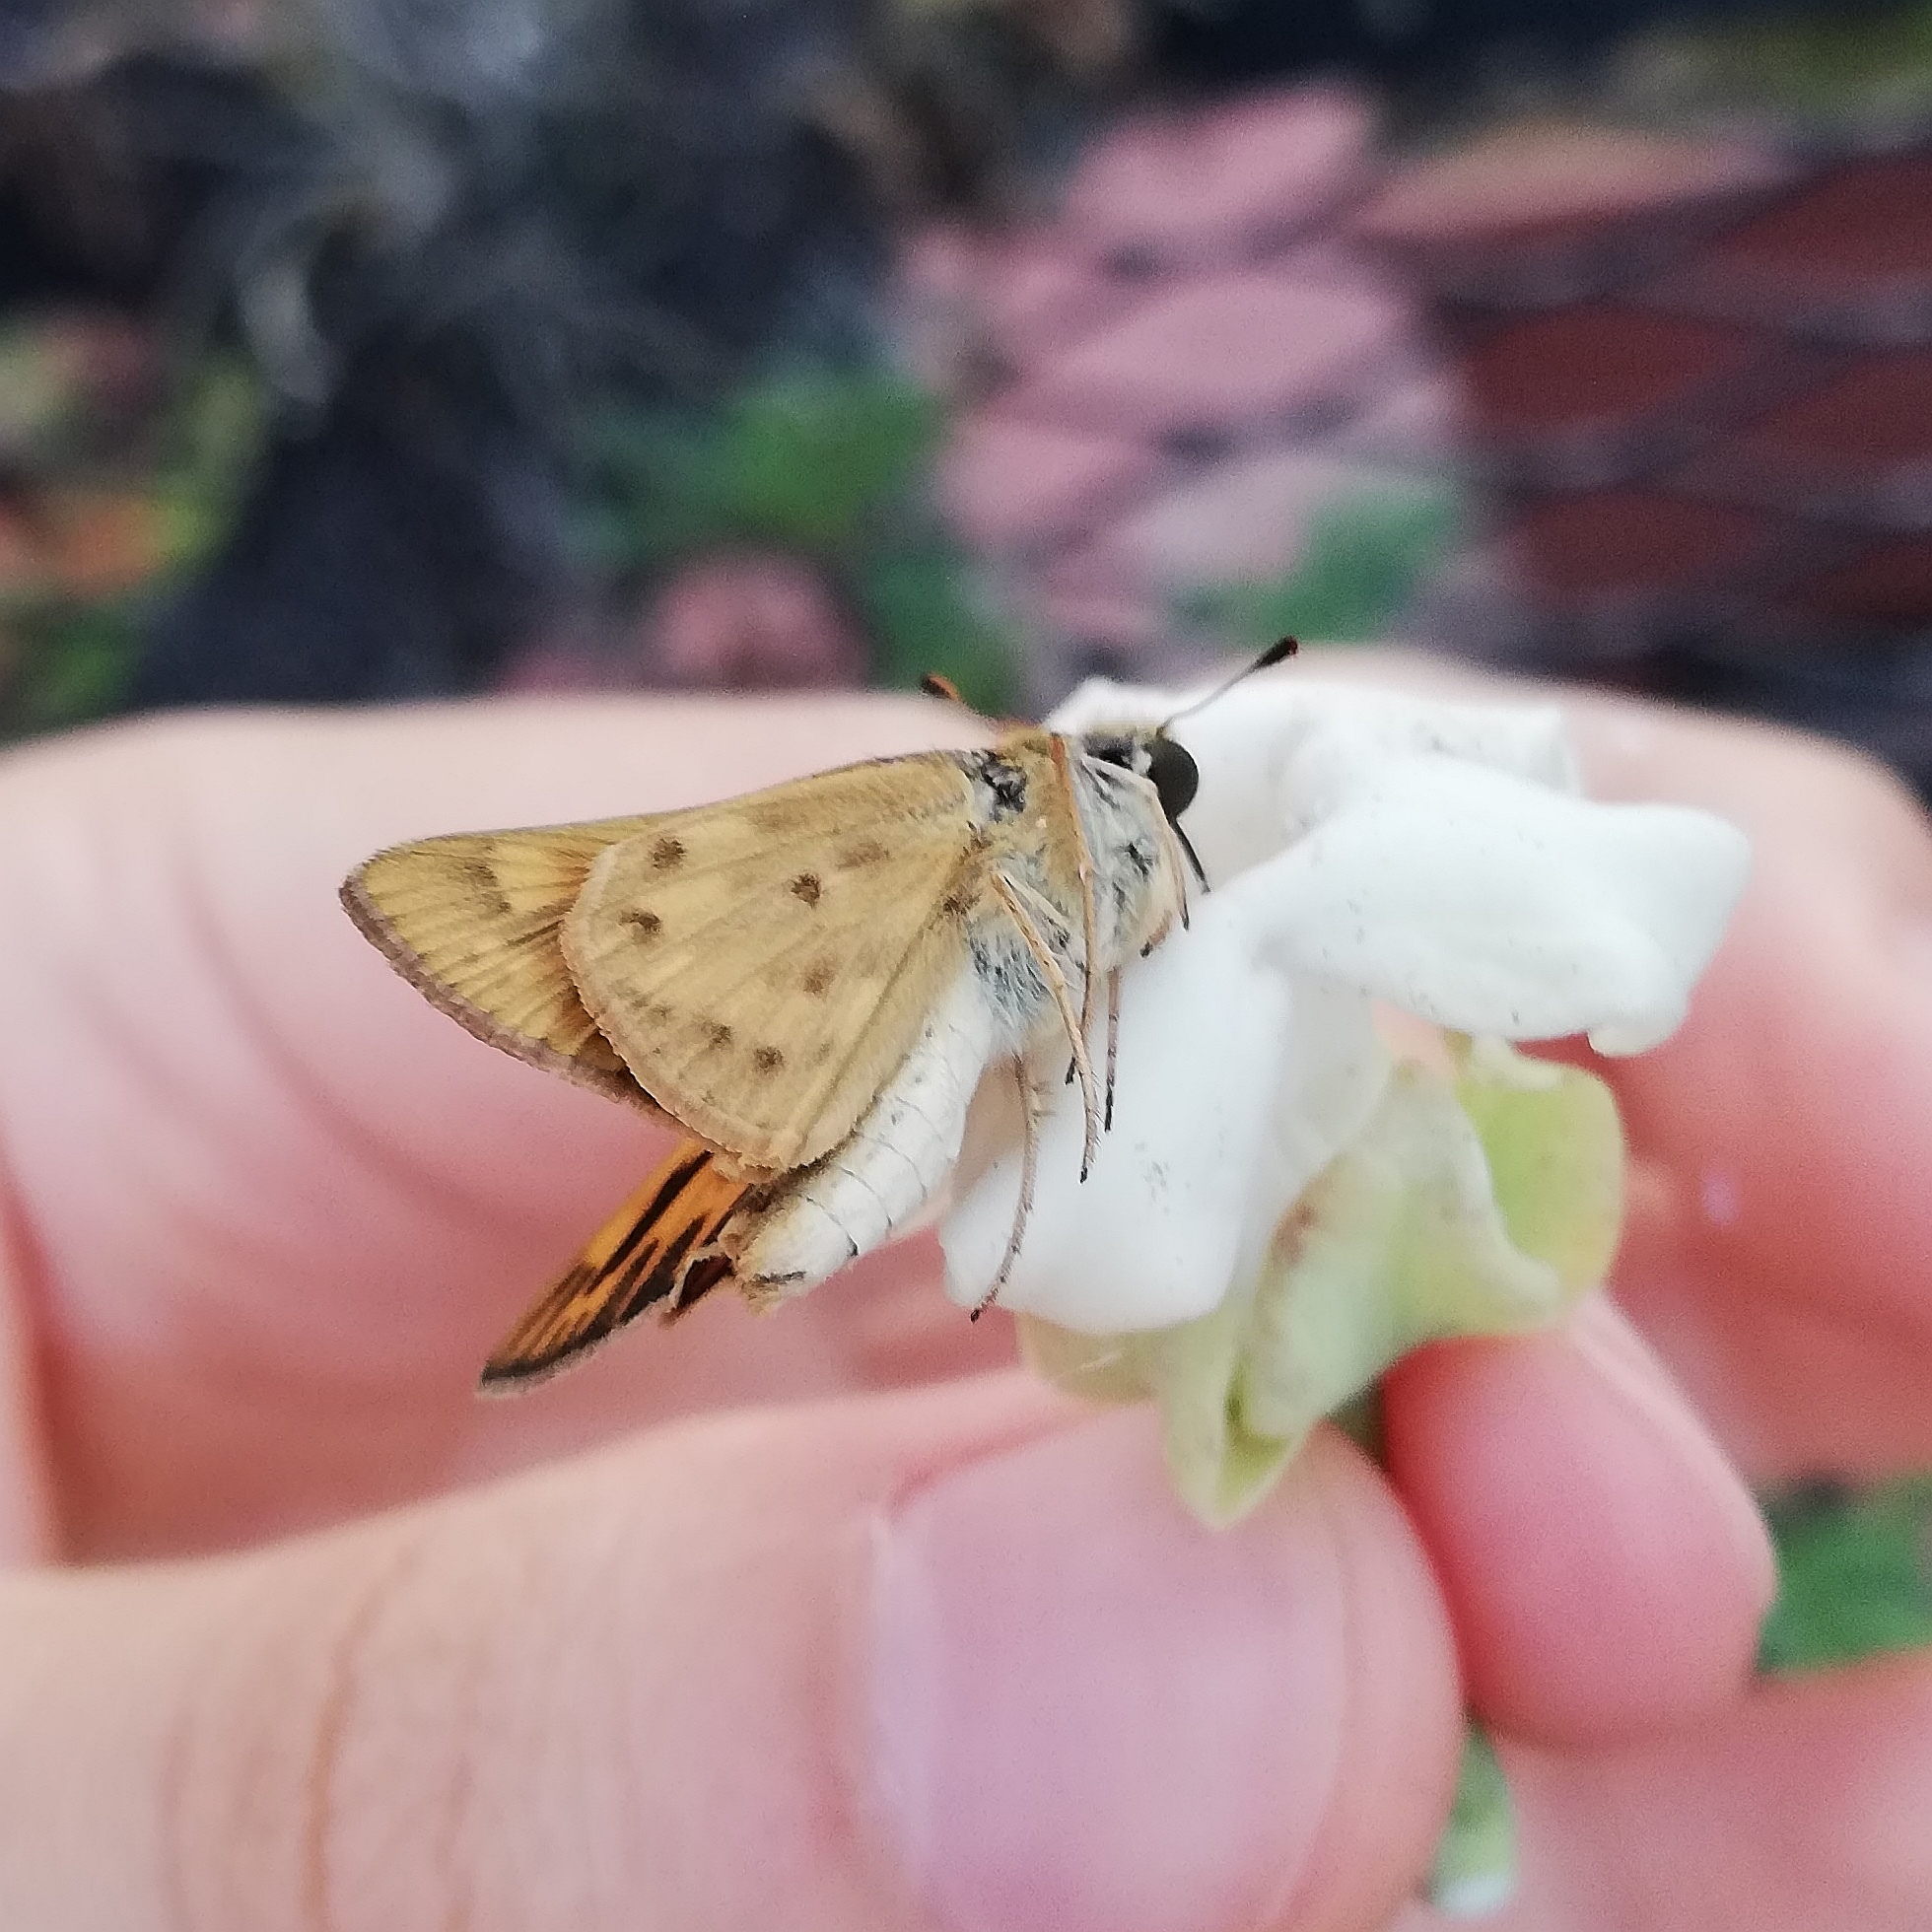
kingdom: Animalia
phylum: Arthropoda
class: Insecta
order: Lepidoptera
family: Hesperiidae
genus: Hylephila
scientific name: Hylephila phyleus
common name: Fiery skipper
